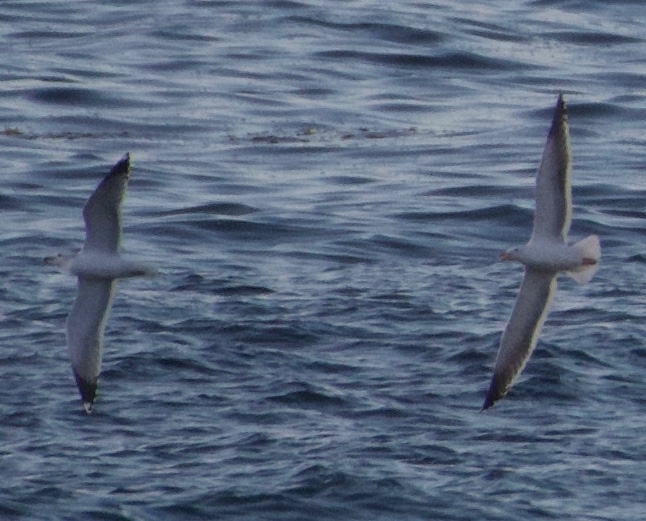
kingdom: Animalia
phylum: Chordata
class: Aves
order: Charadriiformes
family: Laridae
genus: Larus
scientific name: Larus occidentalis
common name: Western gull
